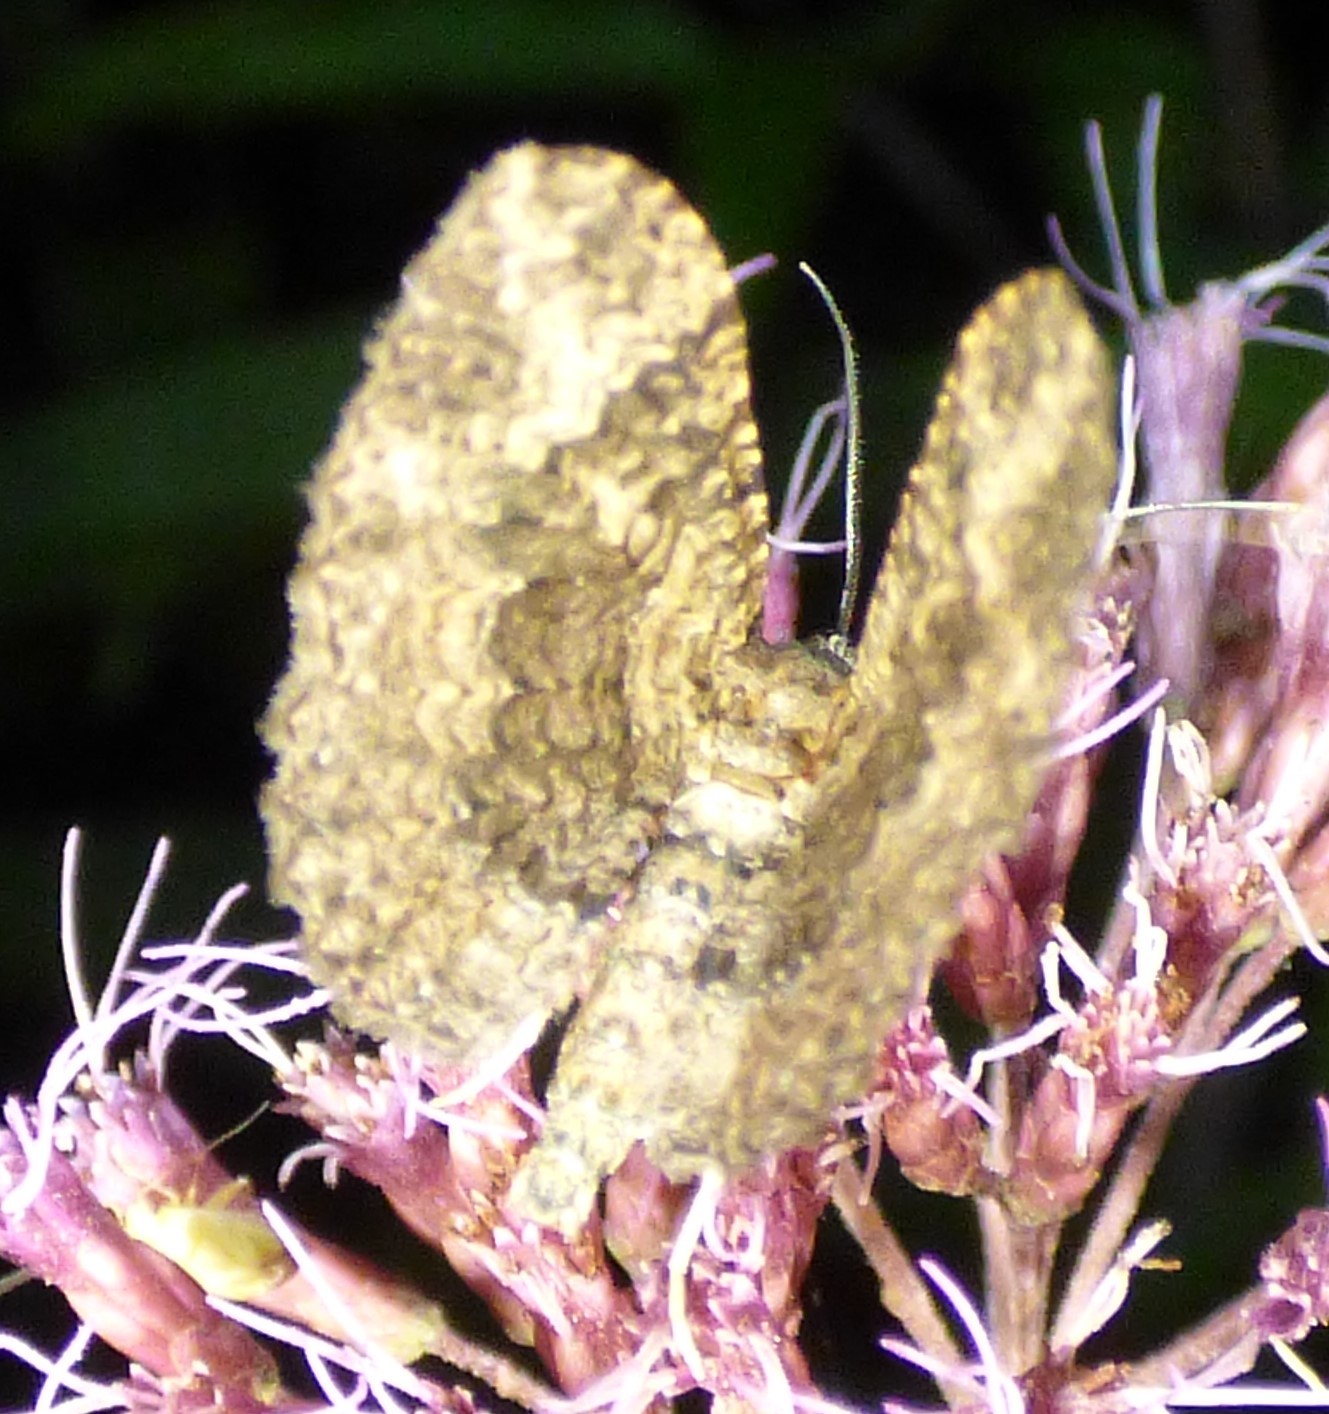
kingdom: Animalia
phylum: Arthropoda
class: Insecta
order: Lepidoptera
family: Geometridae
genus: Disclisioprocta
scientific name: Disclisioprocta stellata
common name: Somber carpet
